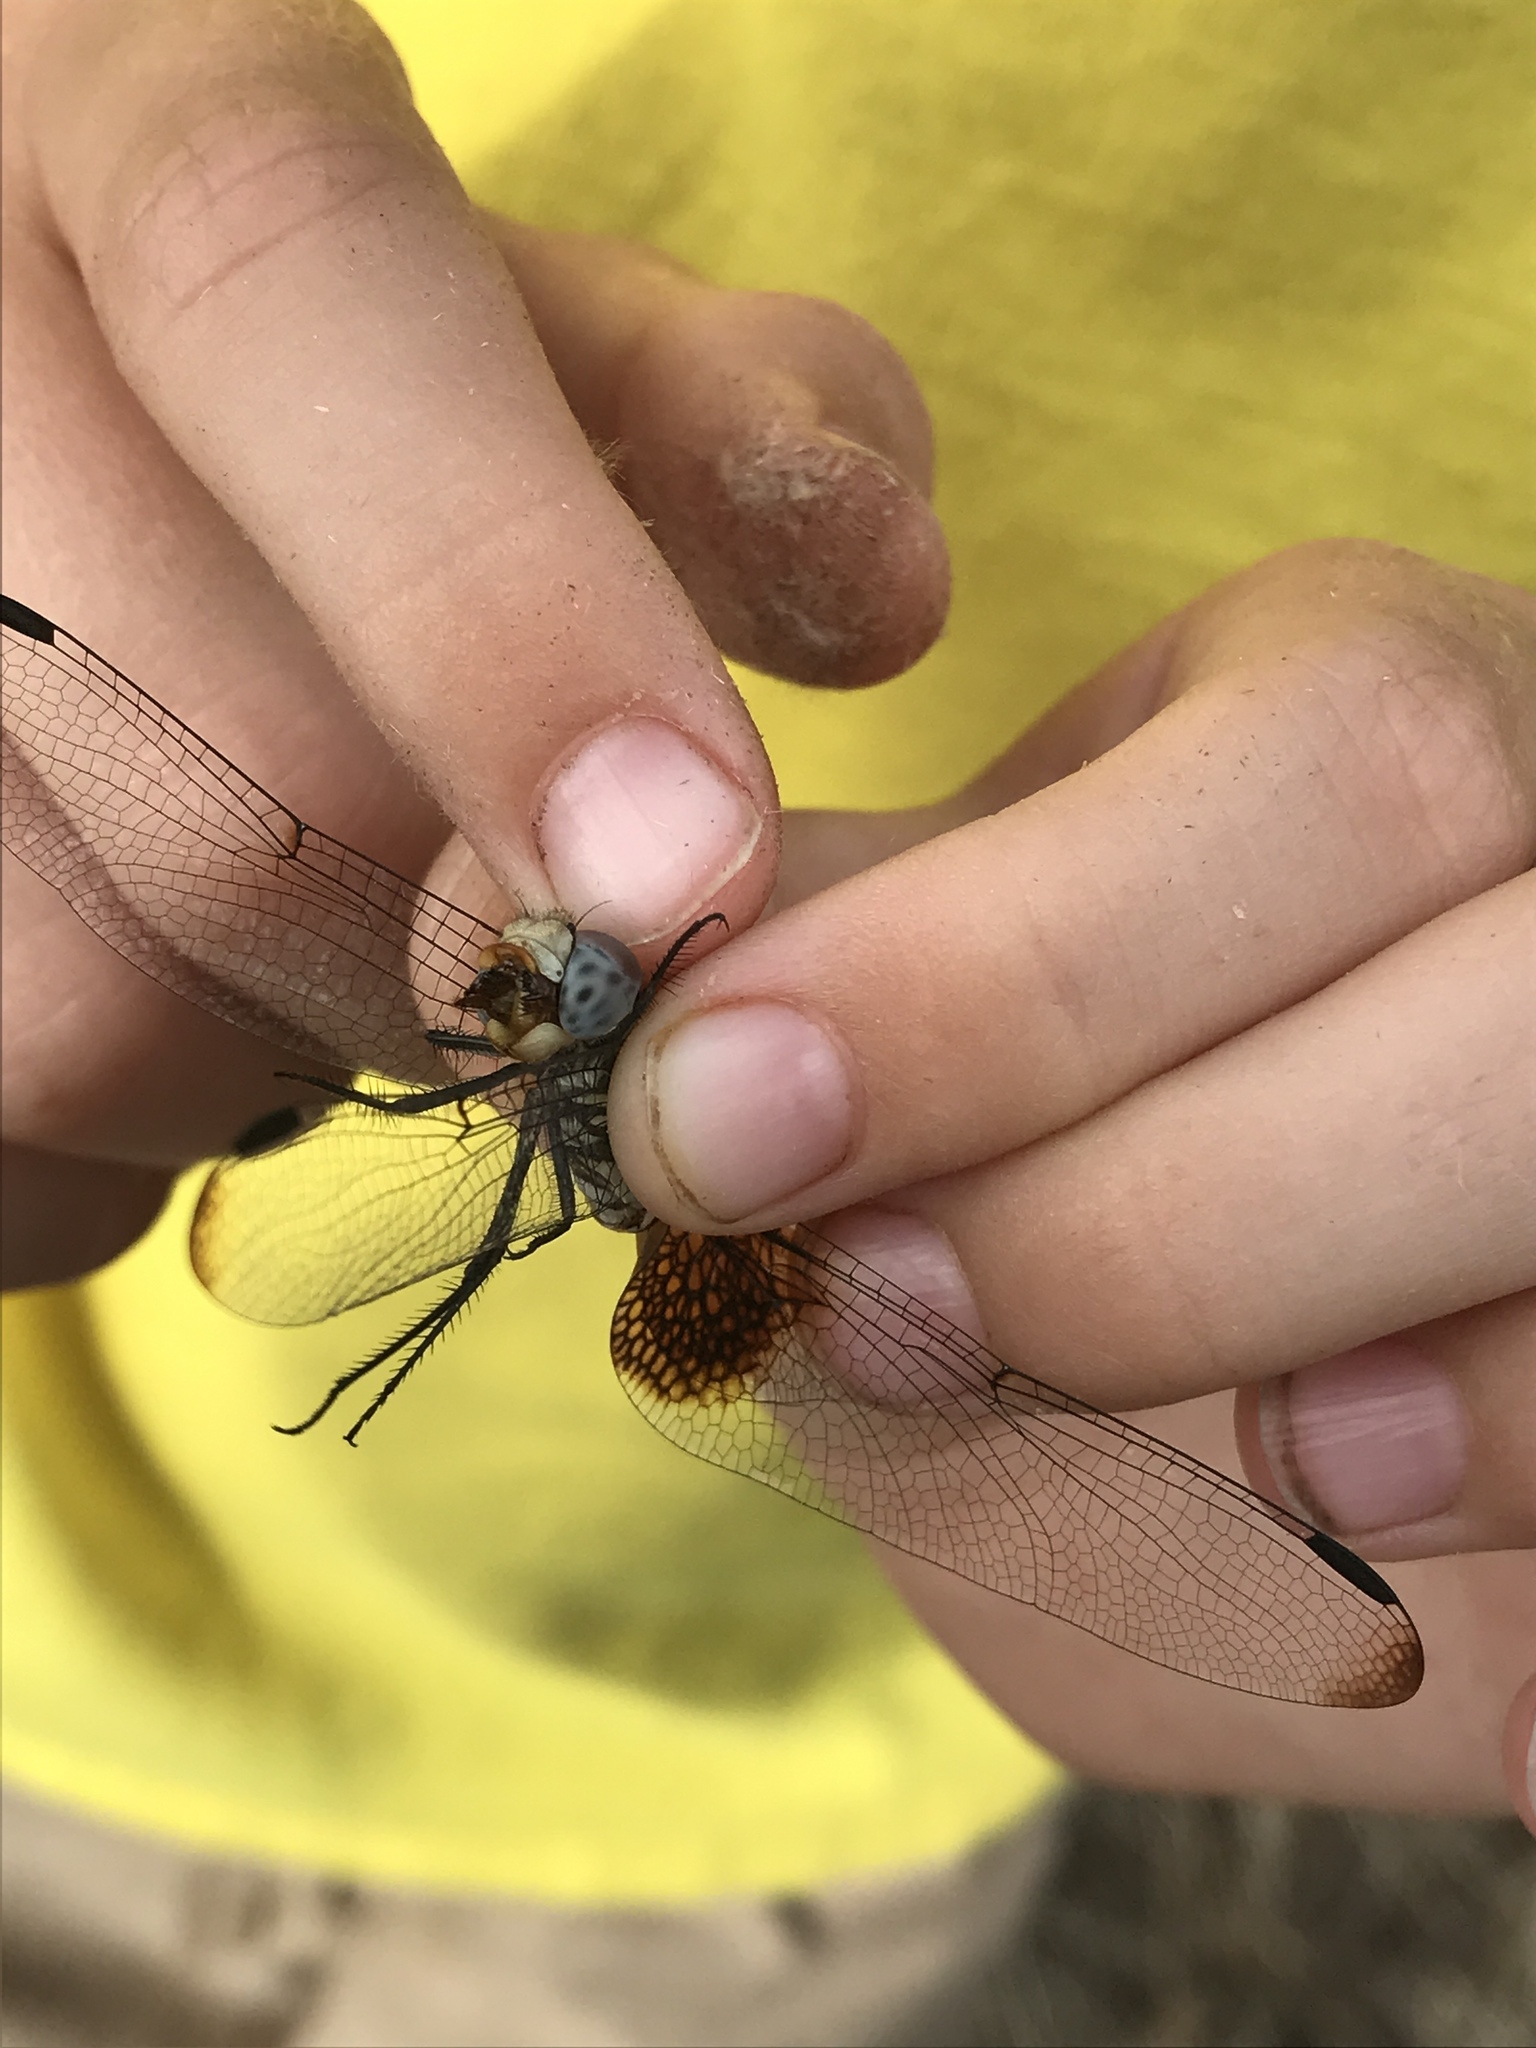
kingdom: Animalia
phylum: Arthropoda
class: Insecta
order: Odonata
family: Libellulidae
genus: Dythemis
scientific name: Dythemis fugax
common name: Checkered setwing
